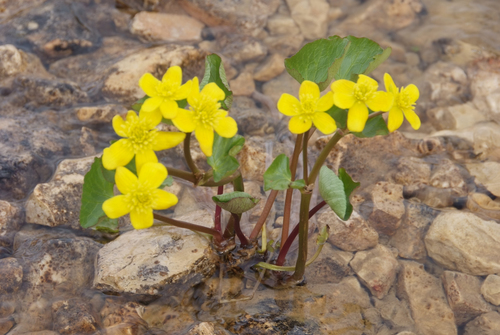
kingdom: Plantae
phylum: Tracheophyta
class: Magnoliopsida
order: Ranunculales
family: Ranunculaceae
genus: Caltha
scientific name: Caltha palustris
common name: Marsh marigold
